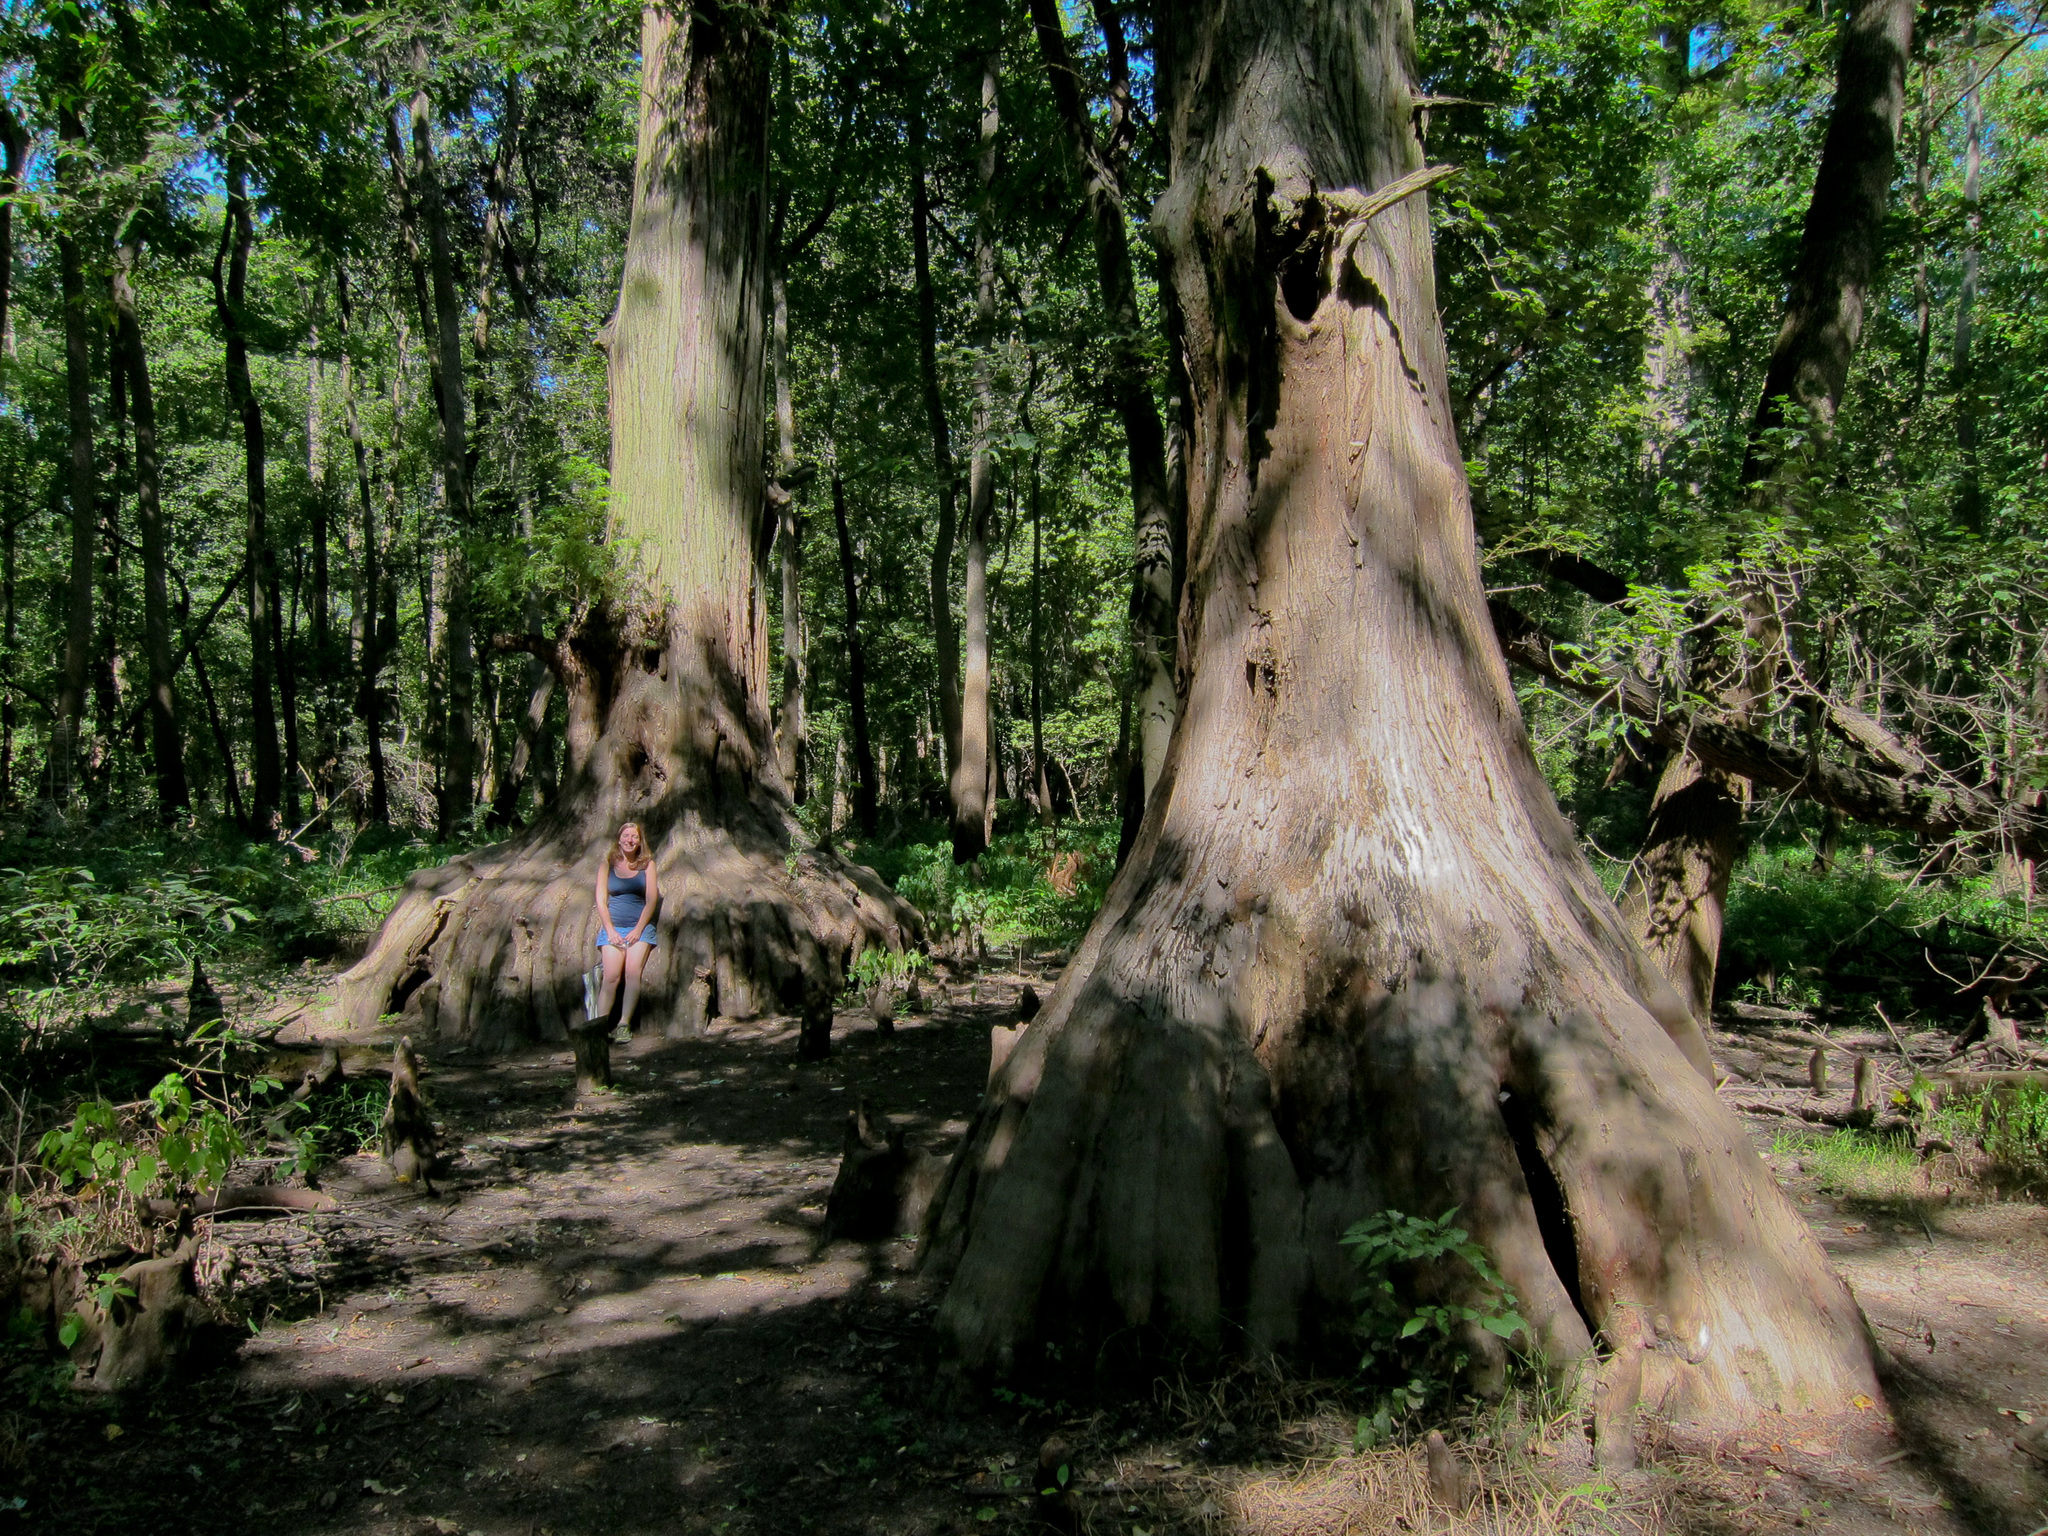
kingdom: Plantae
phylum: Tracheophyta
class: Pinopsida
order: Pinales
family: Cupressaceae
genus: Taxodium
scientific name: Taxodium distichum
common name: Bald cypress
